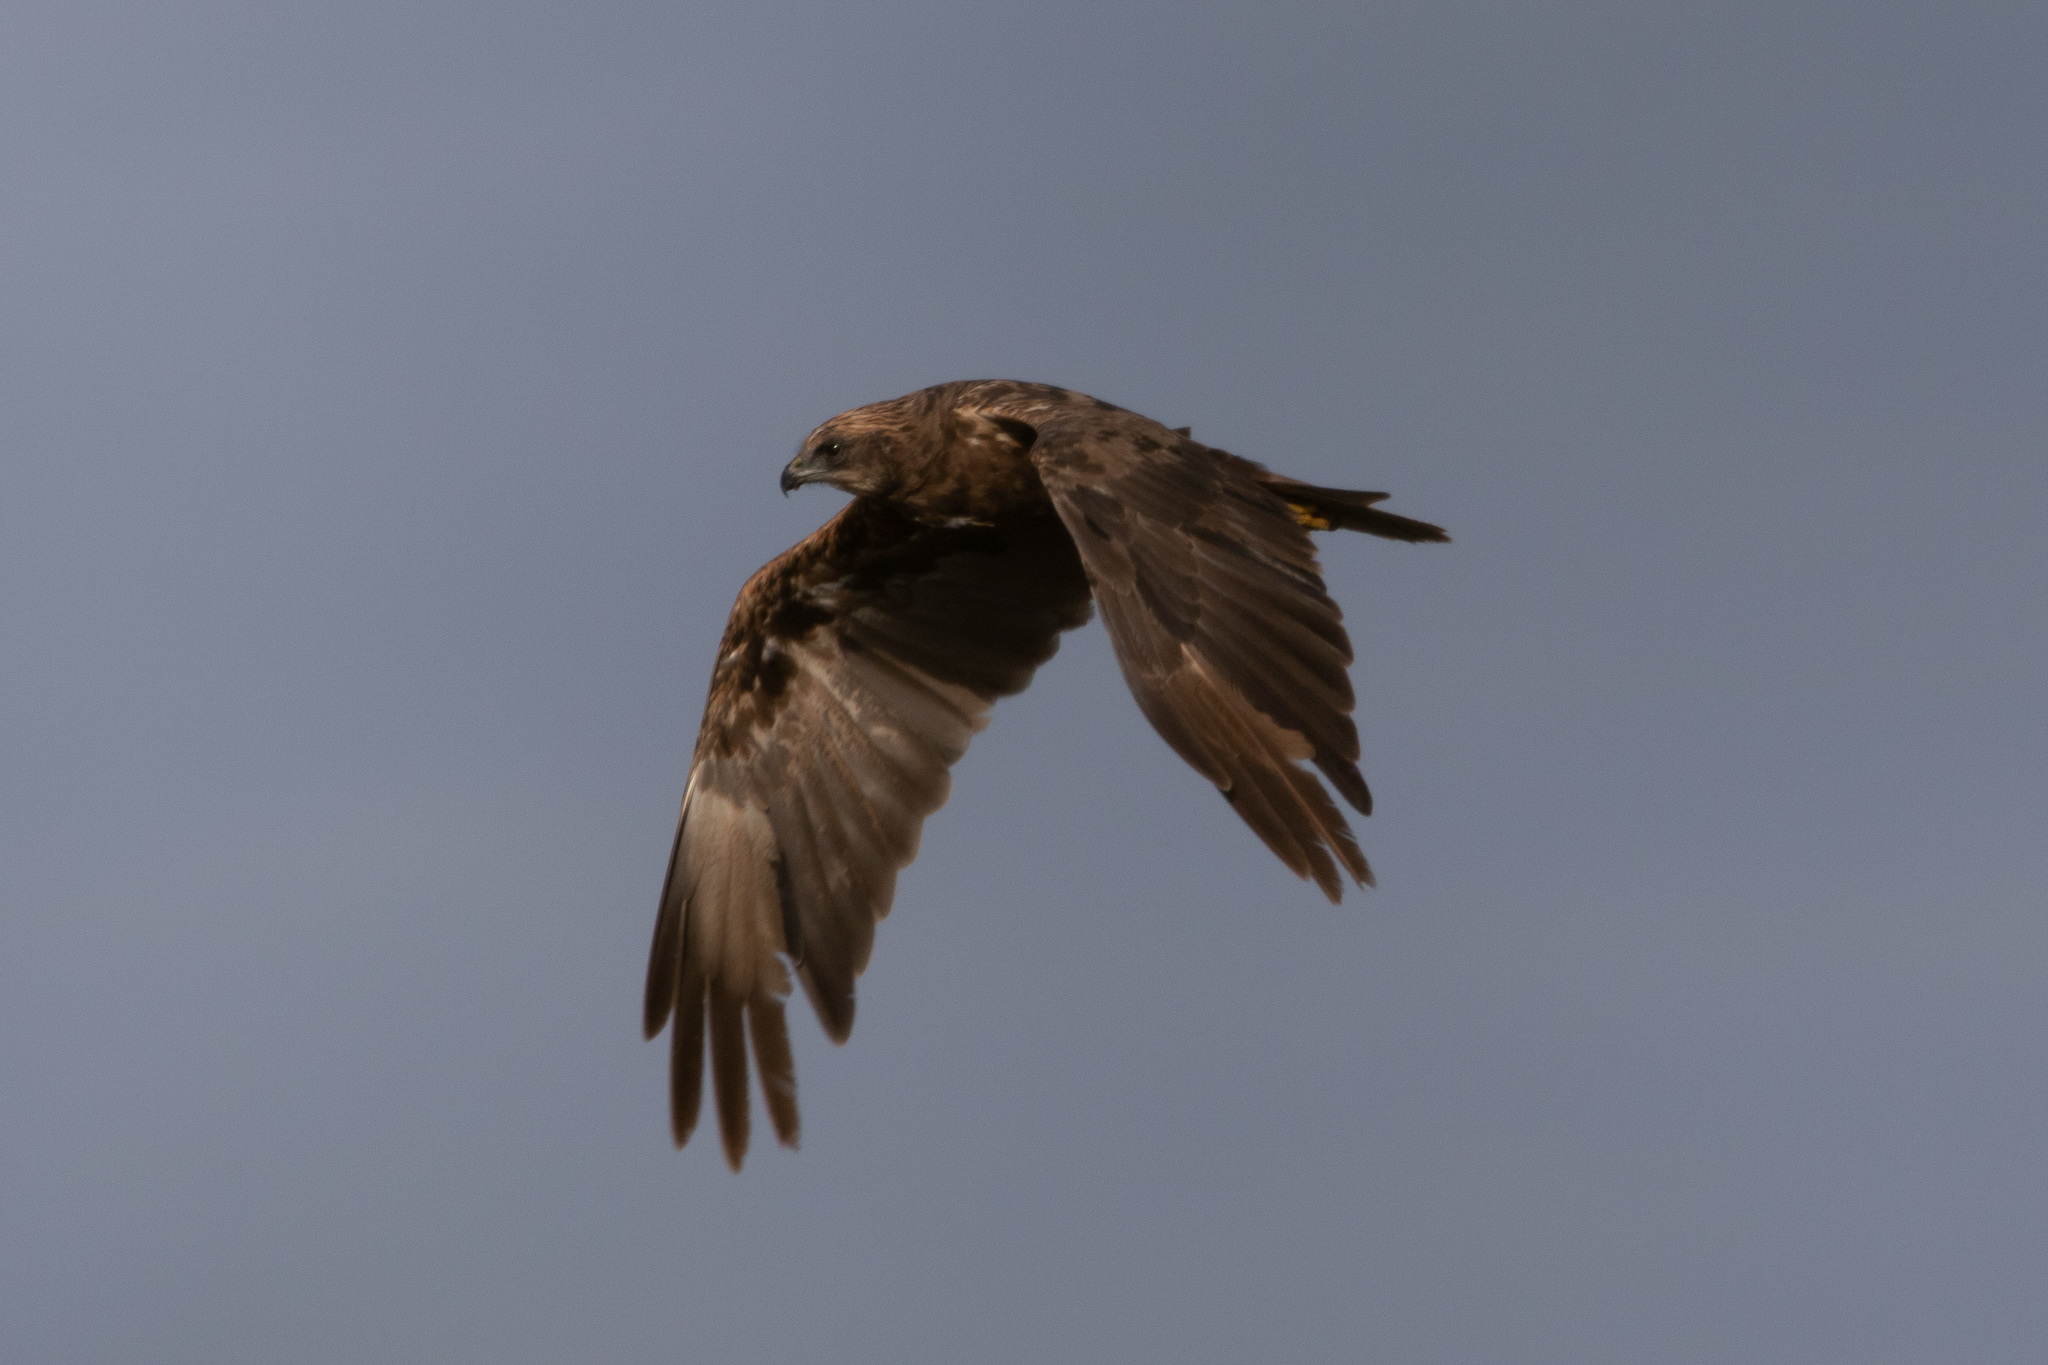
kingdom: Animalia
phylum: Chordata
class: Aves
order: Accipitriformes
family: Accipitridae
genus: Circus
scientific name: Circus aeruginosus
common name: Western marsh harrier
